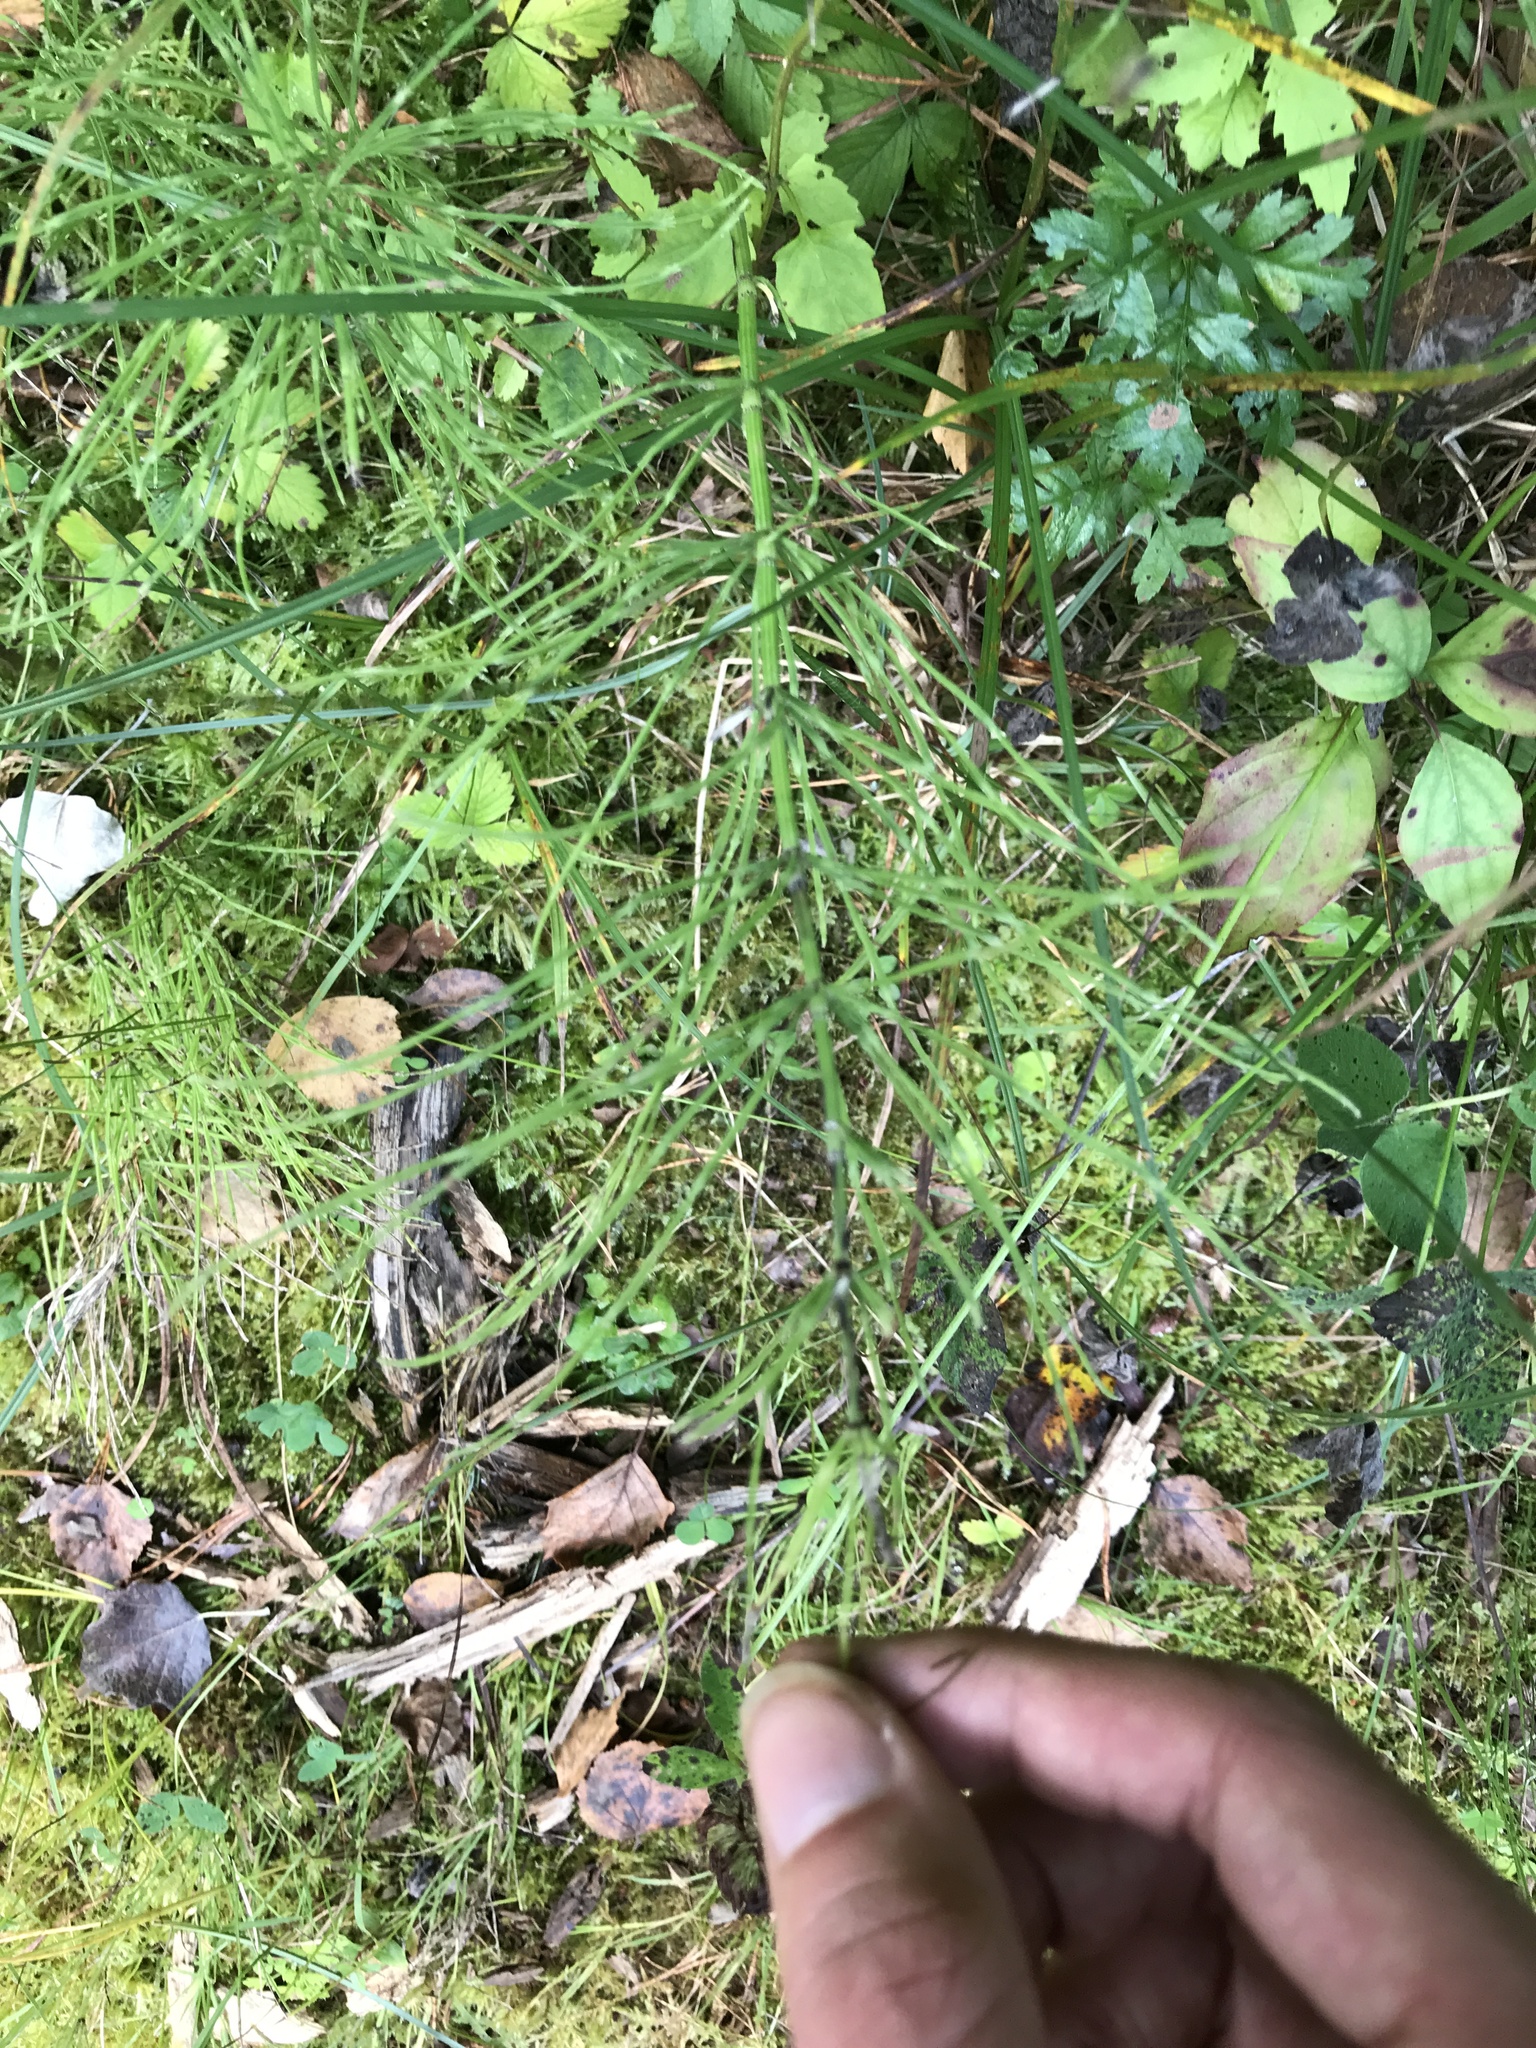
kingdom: Plantae
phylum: Tracheophyta
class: Polypodiopsida
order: Equisetales
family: Equisetaceae
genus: Equisetum
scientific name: Equisetum arvense
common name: Field horsetail
